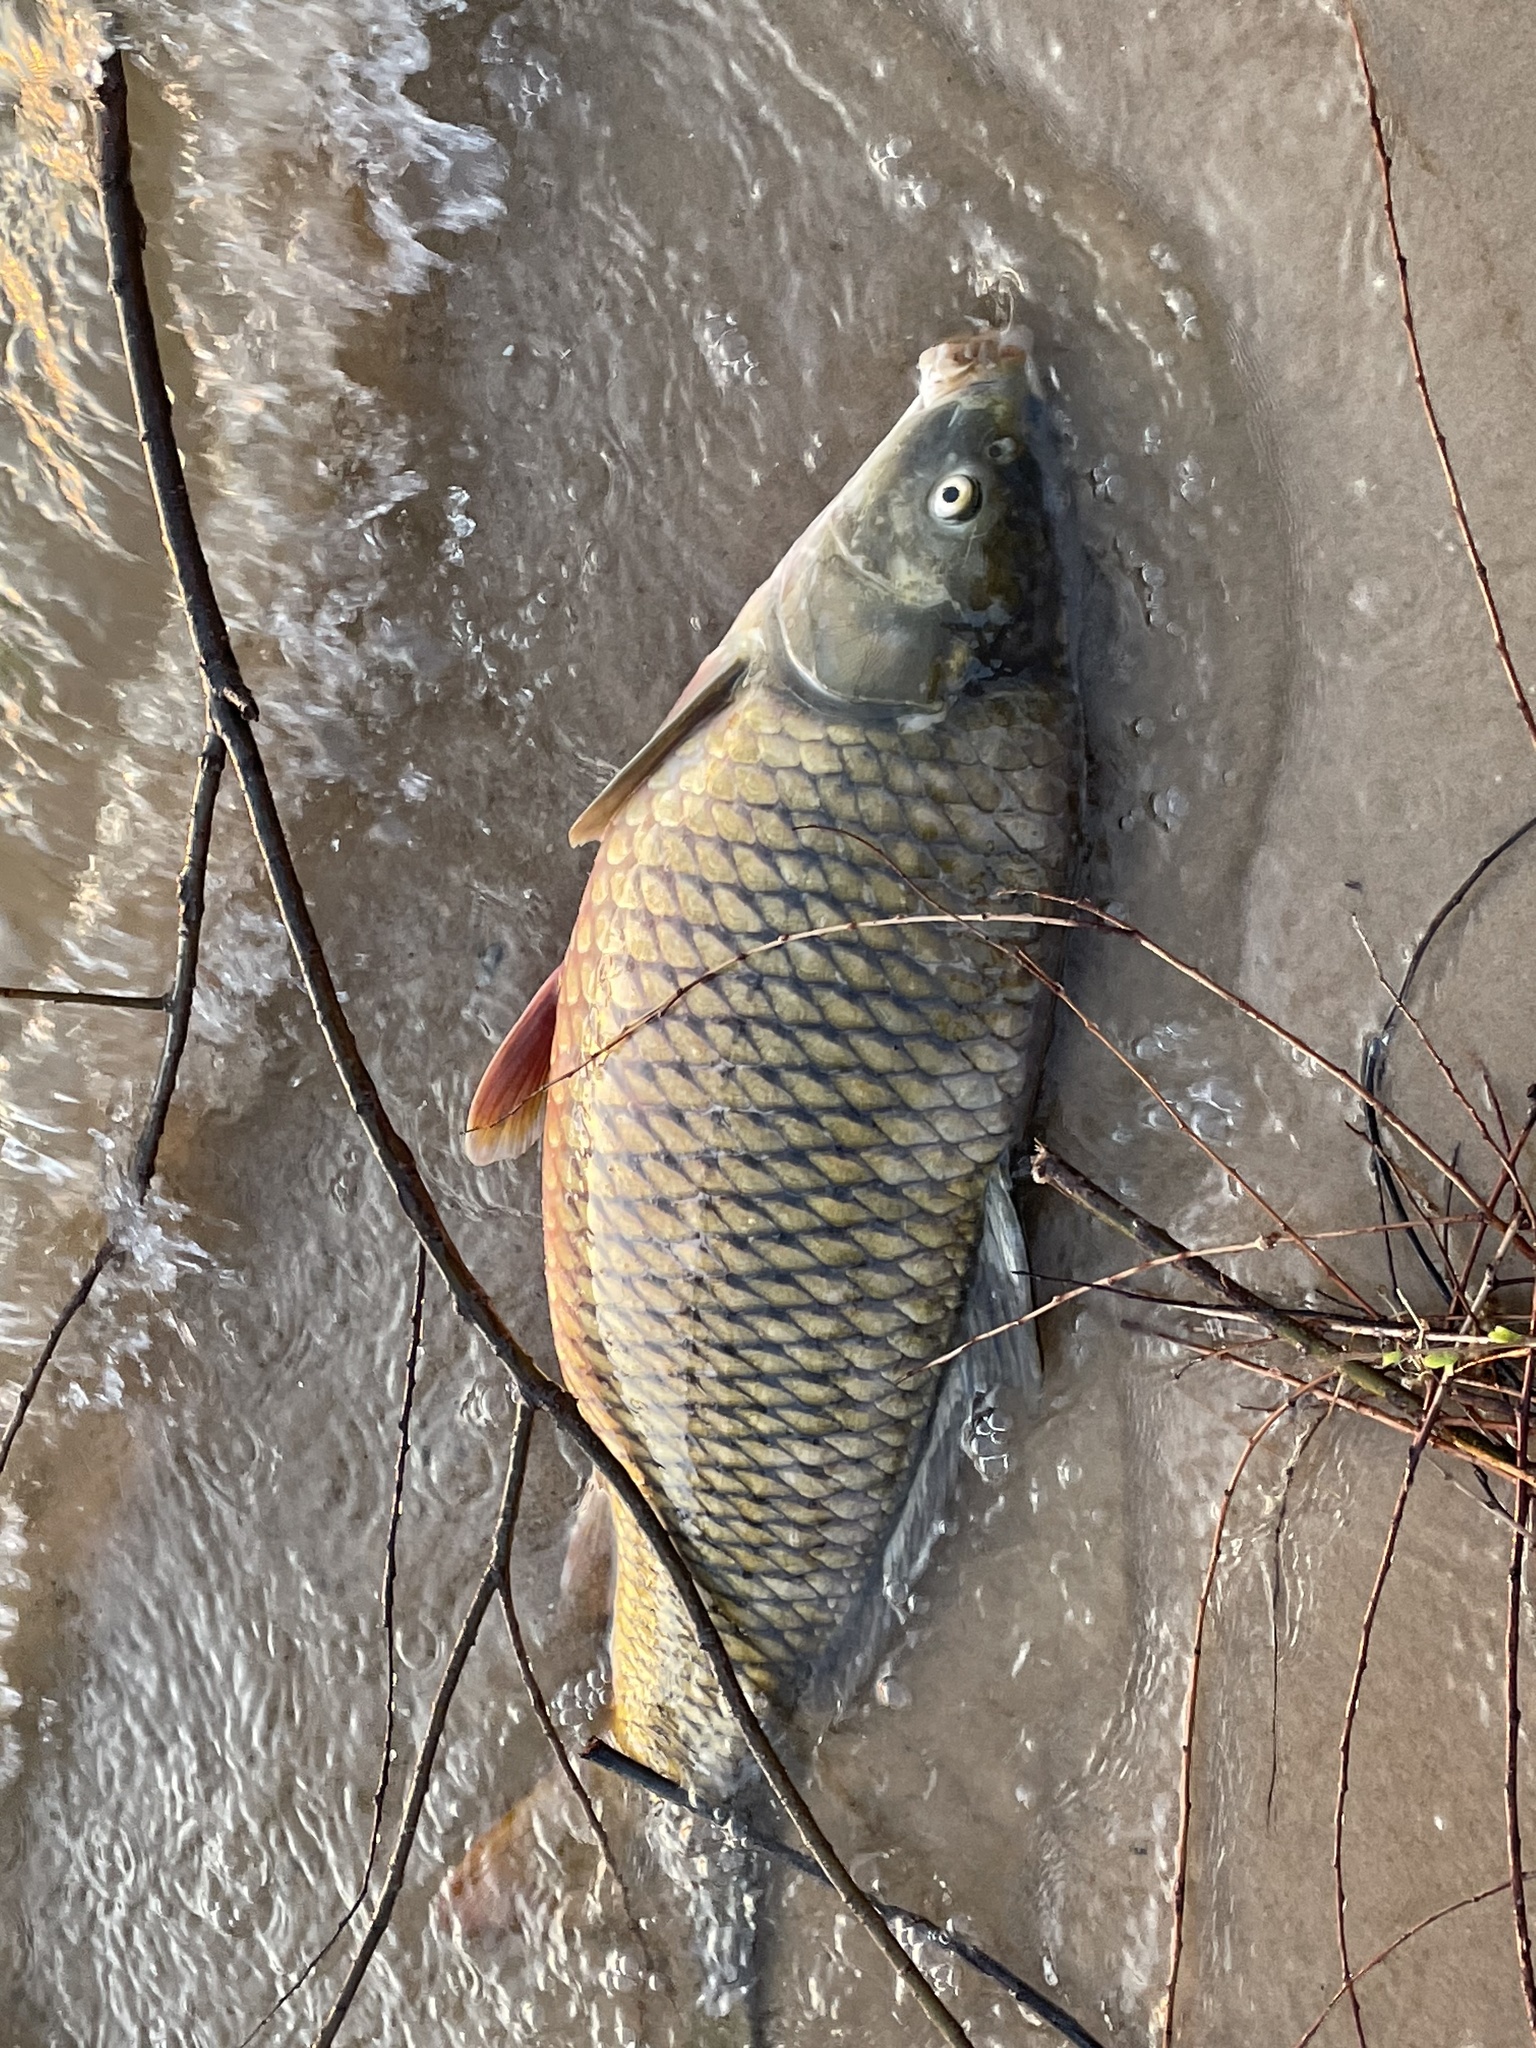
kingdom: Animalia
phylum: Chordata
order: Cypriniformes
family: Cyprinidae
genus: Cyprinus
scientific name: Cyprinus carpio
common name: Common carp
